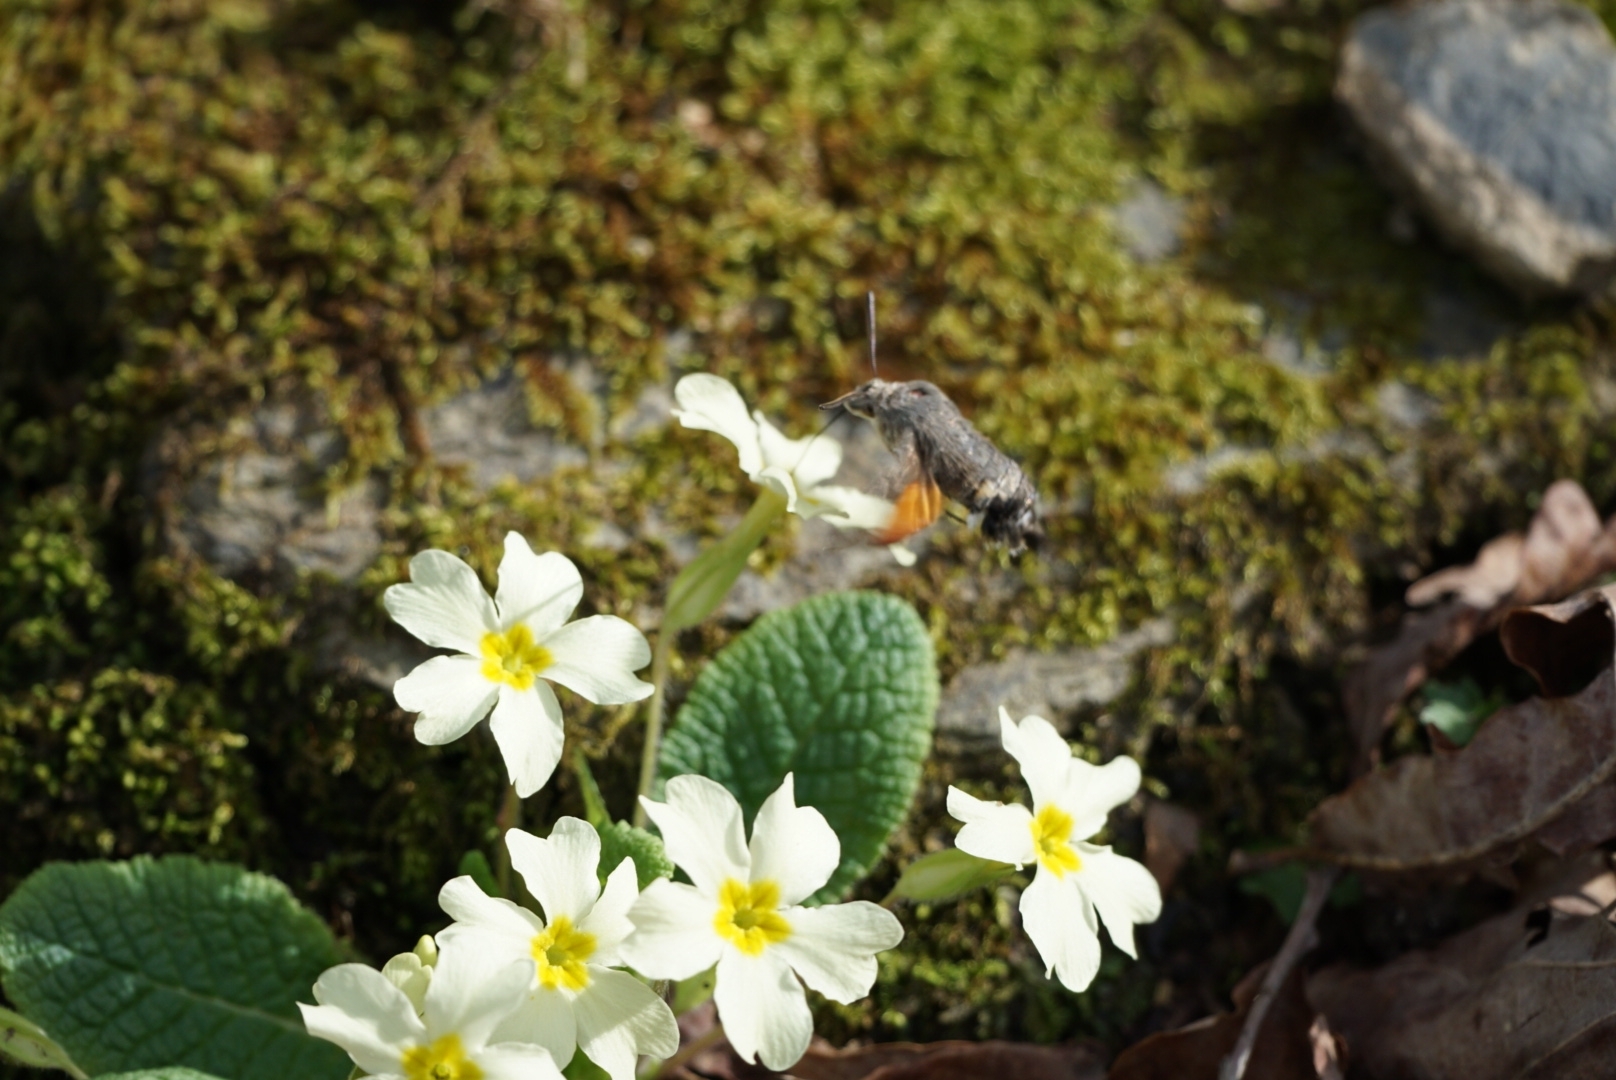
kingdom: Animalia
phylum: Arthropoda
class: Insecta
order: Lepidoptera
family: Sphingidae
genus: Macroglossum
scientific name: Macroglossum stellatarum
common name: Humming-bird hawk-moth
